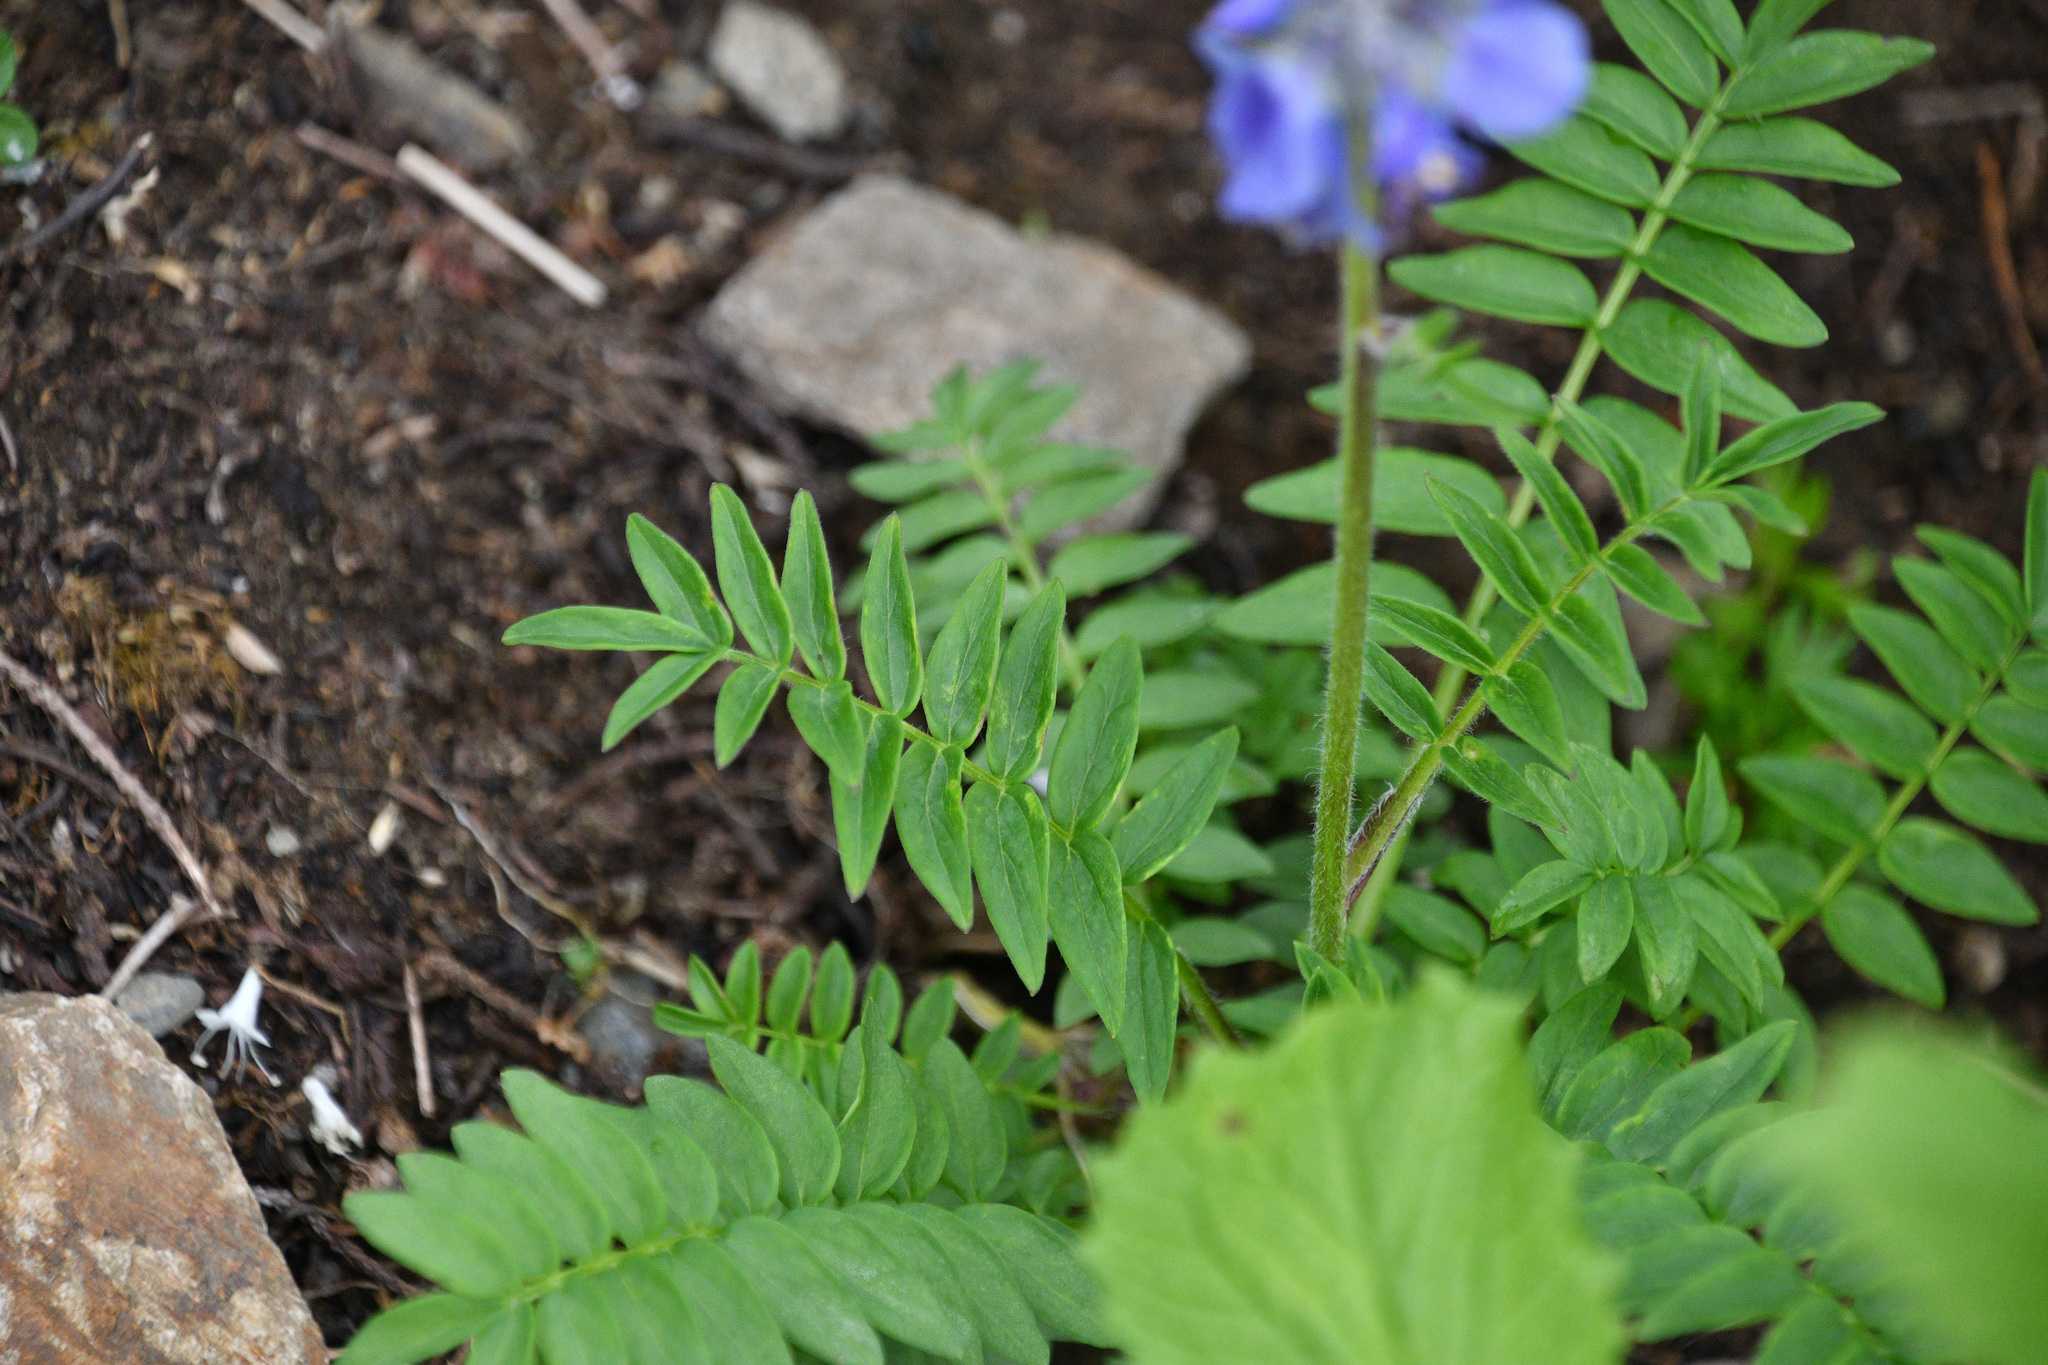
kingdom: Plantae
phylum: Tracheophyta
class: Magnoliopsida
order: Ericales
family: Polemoniaceae
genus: Polemonium
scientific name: Polemonium acutiflorum
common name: Tall jacob's-ladder
